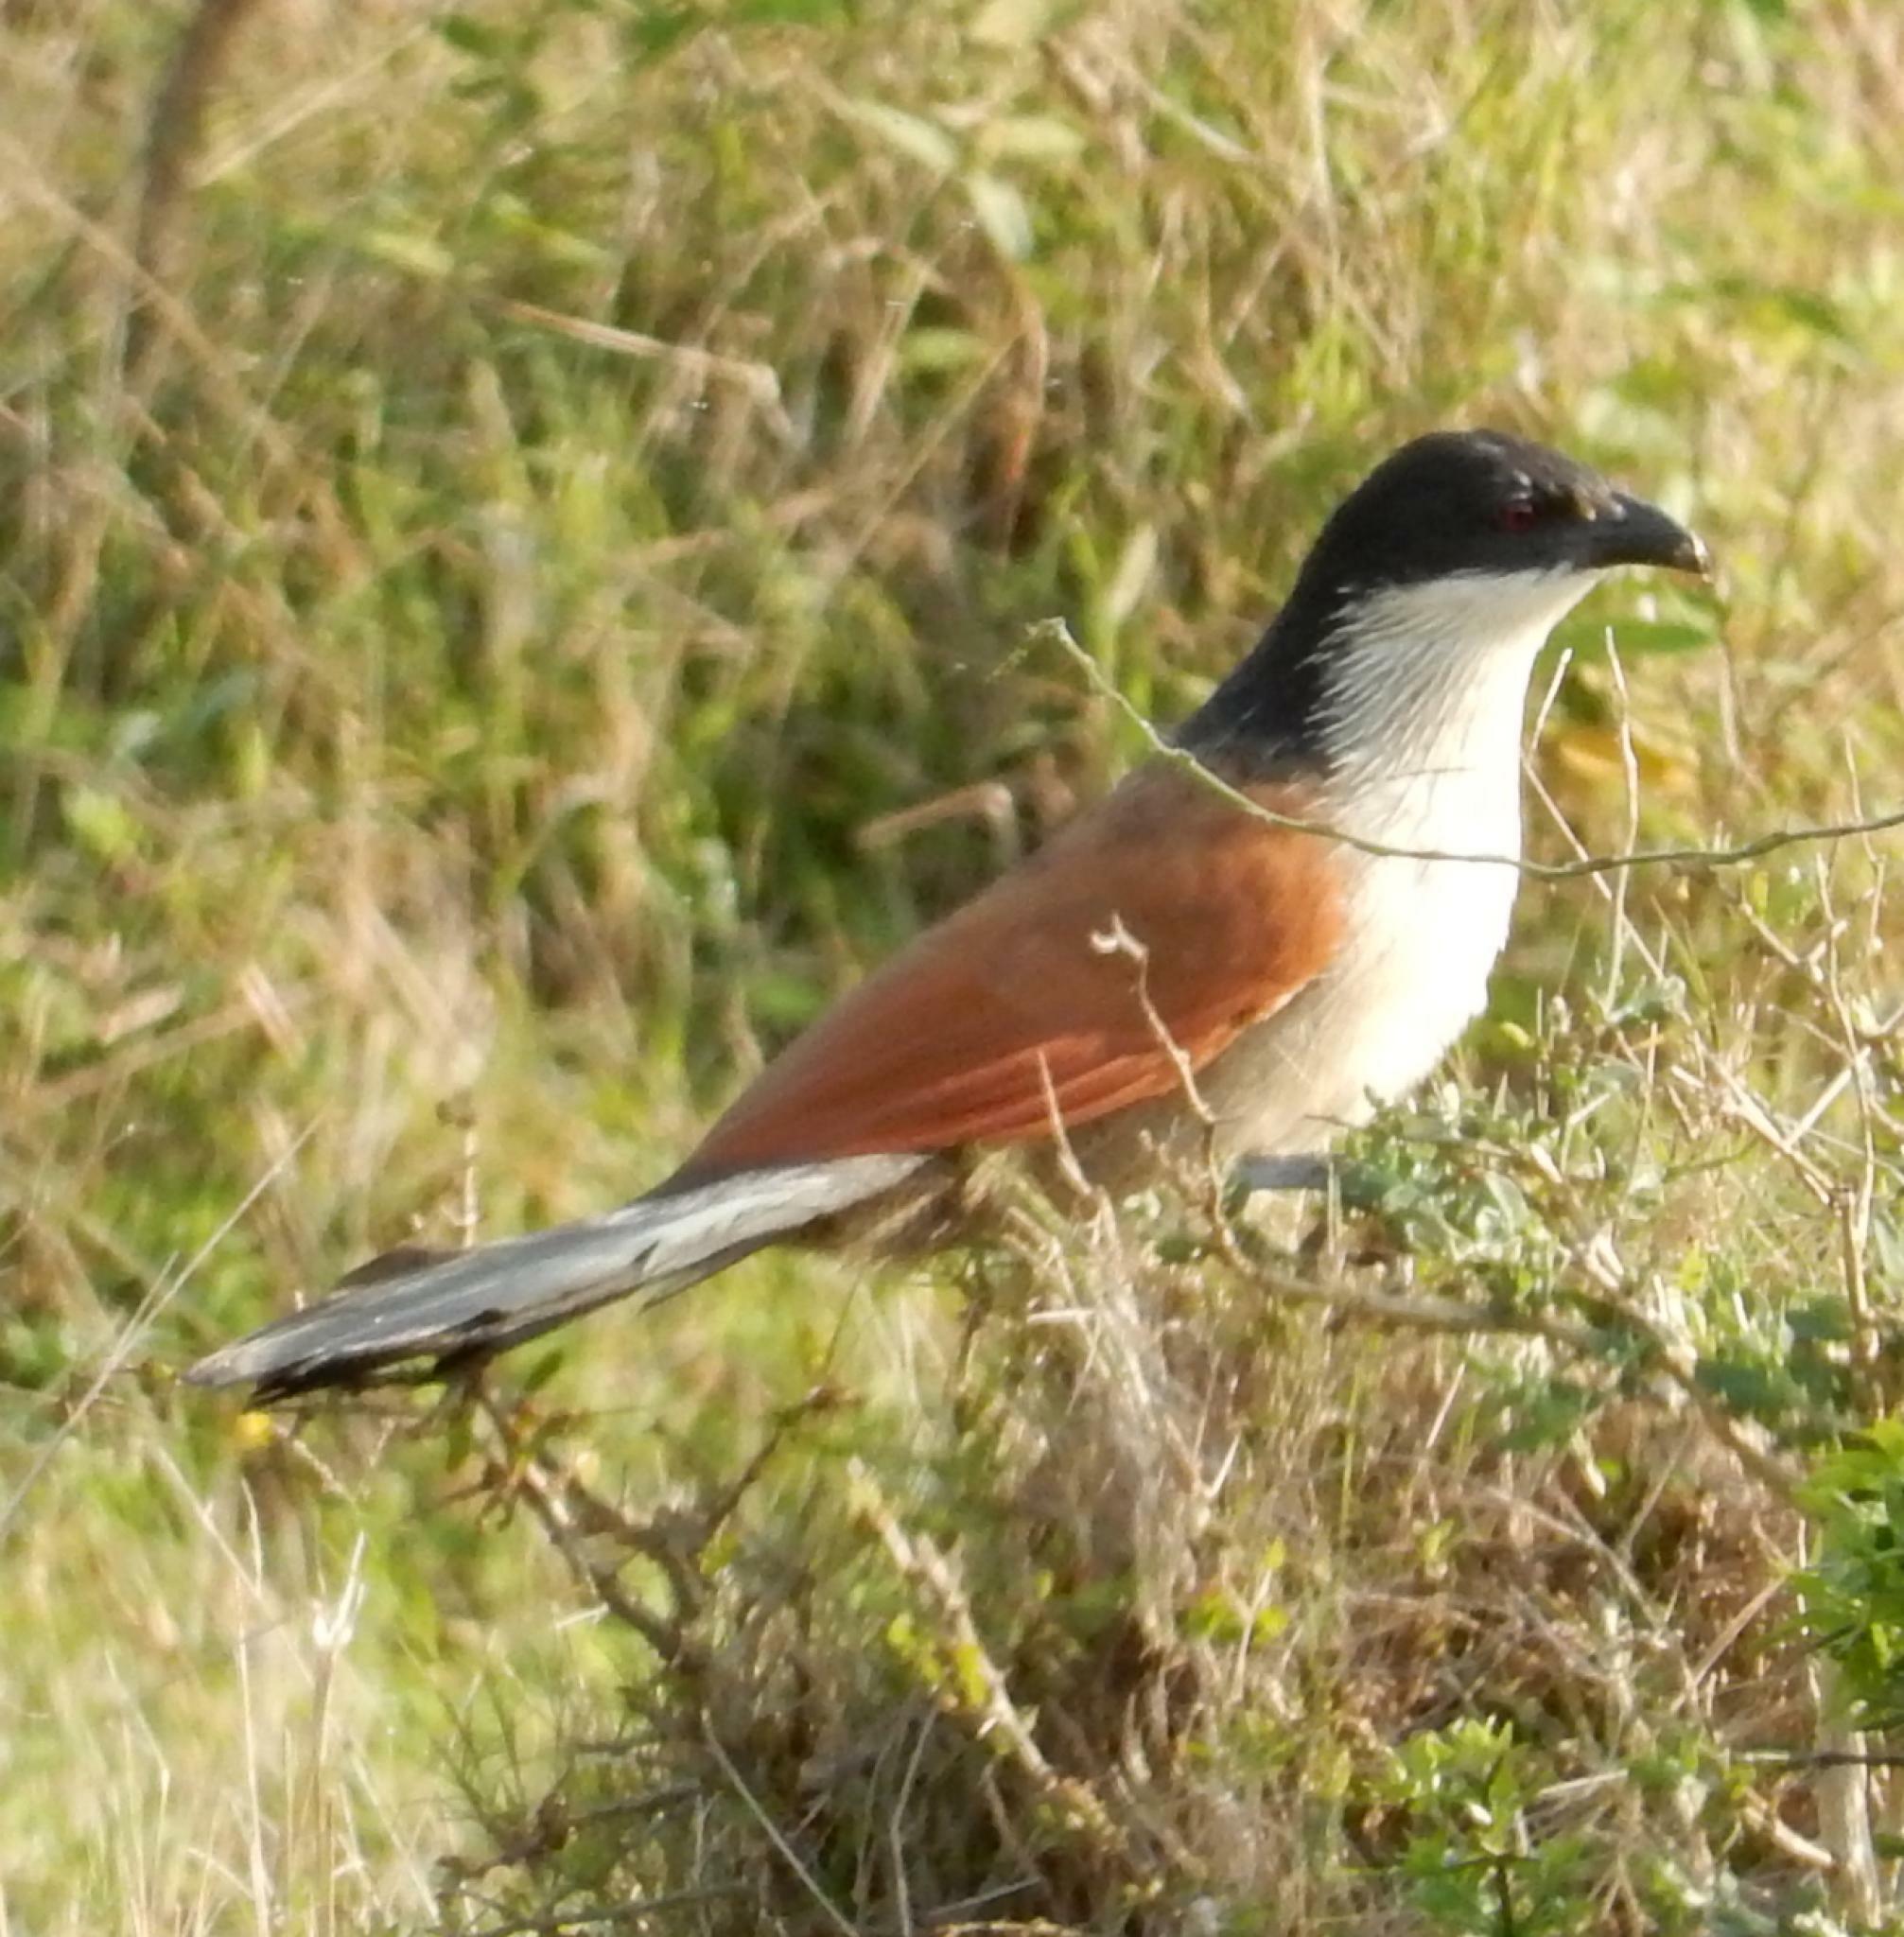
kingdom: Animalia
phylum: Chordata
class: Aves
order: Cuculiformes
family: Cuculidae
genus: Centropus
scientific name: Centropus superciliosus
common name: White-browed coucal
